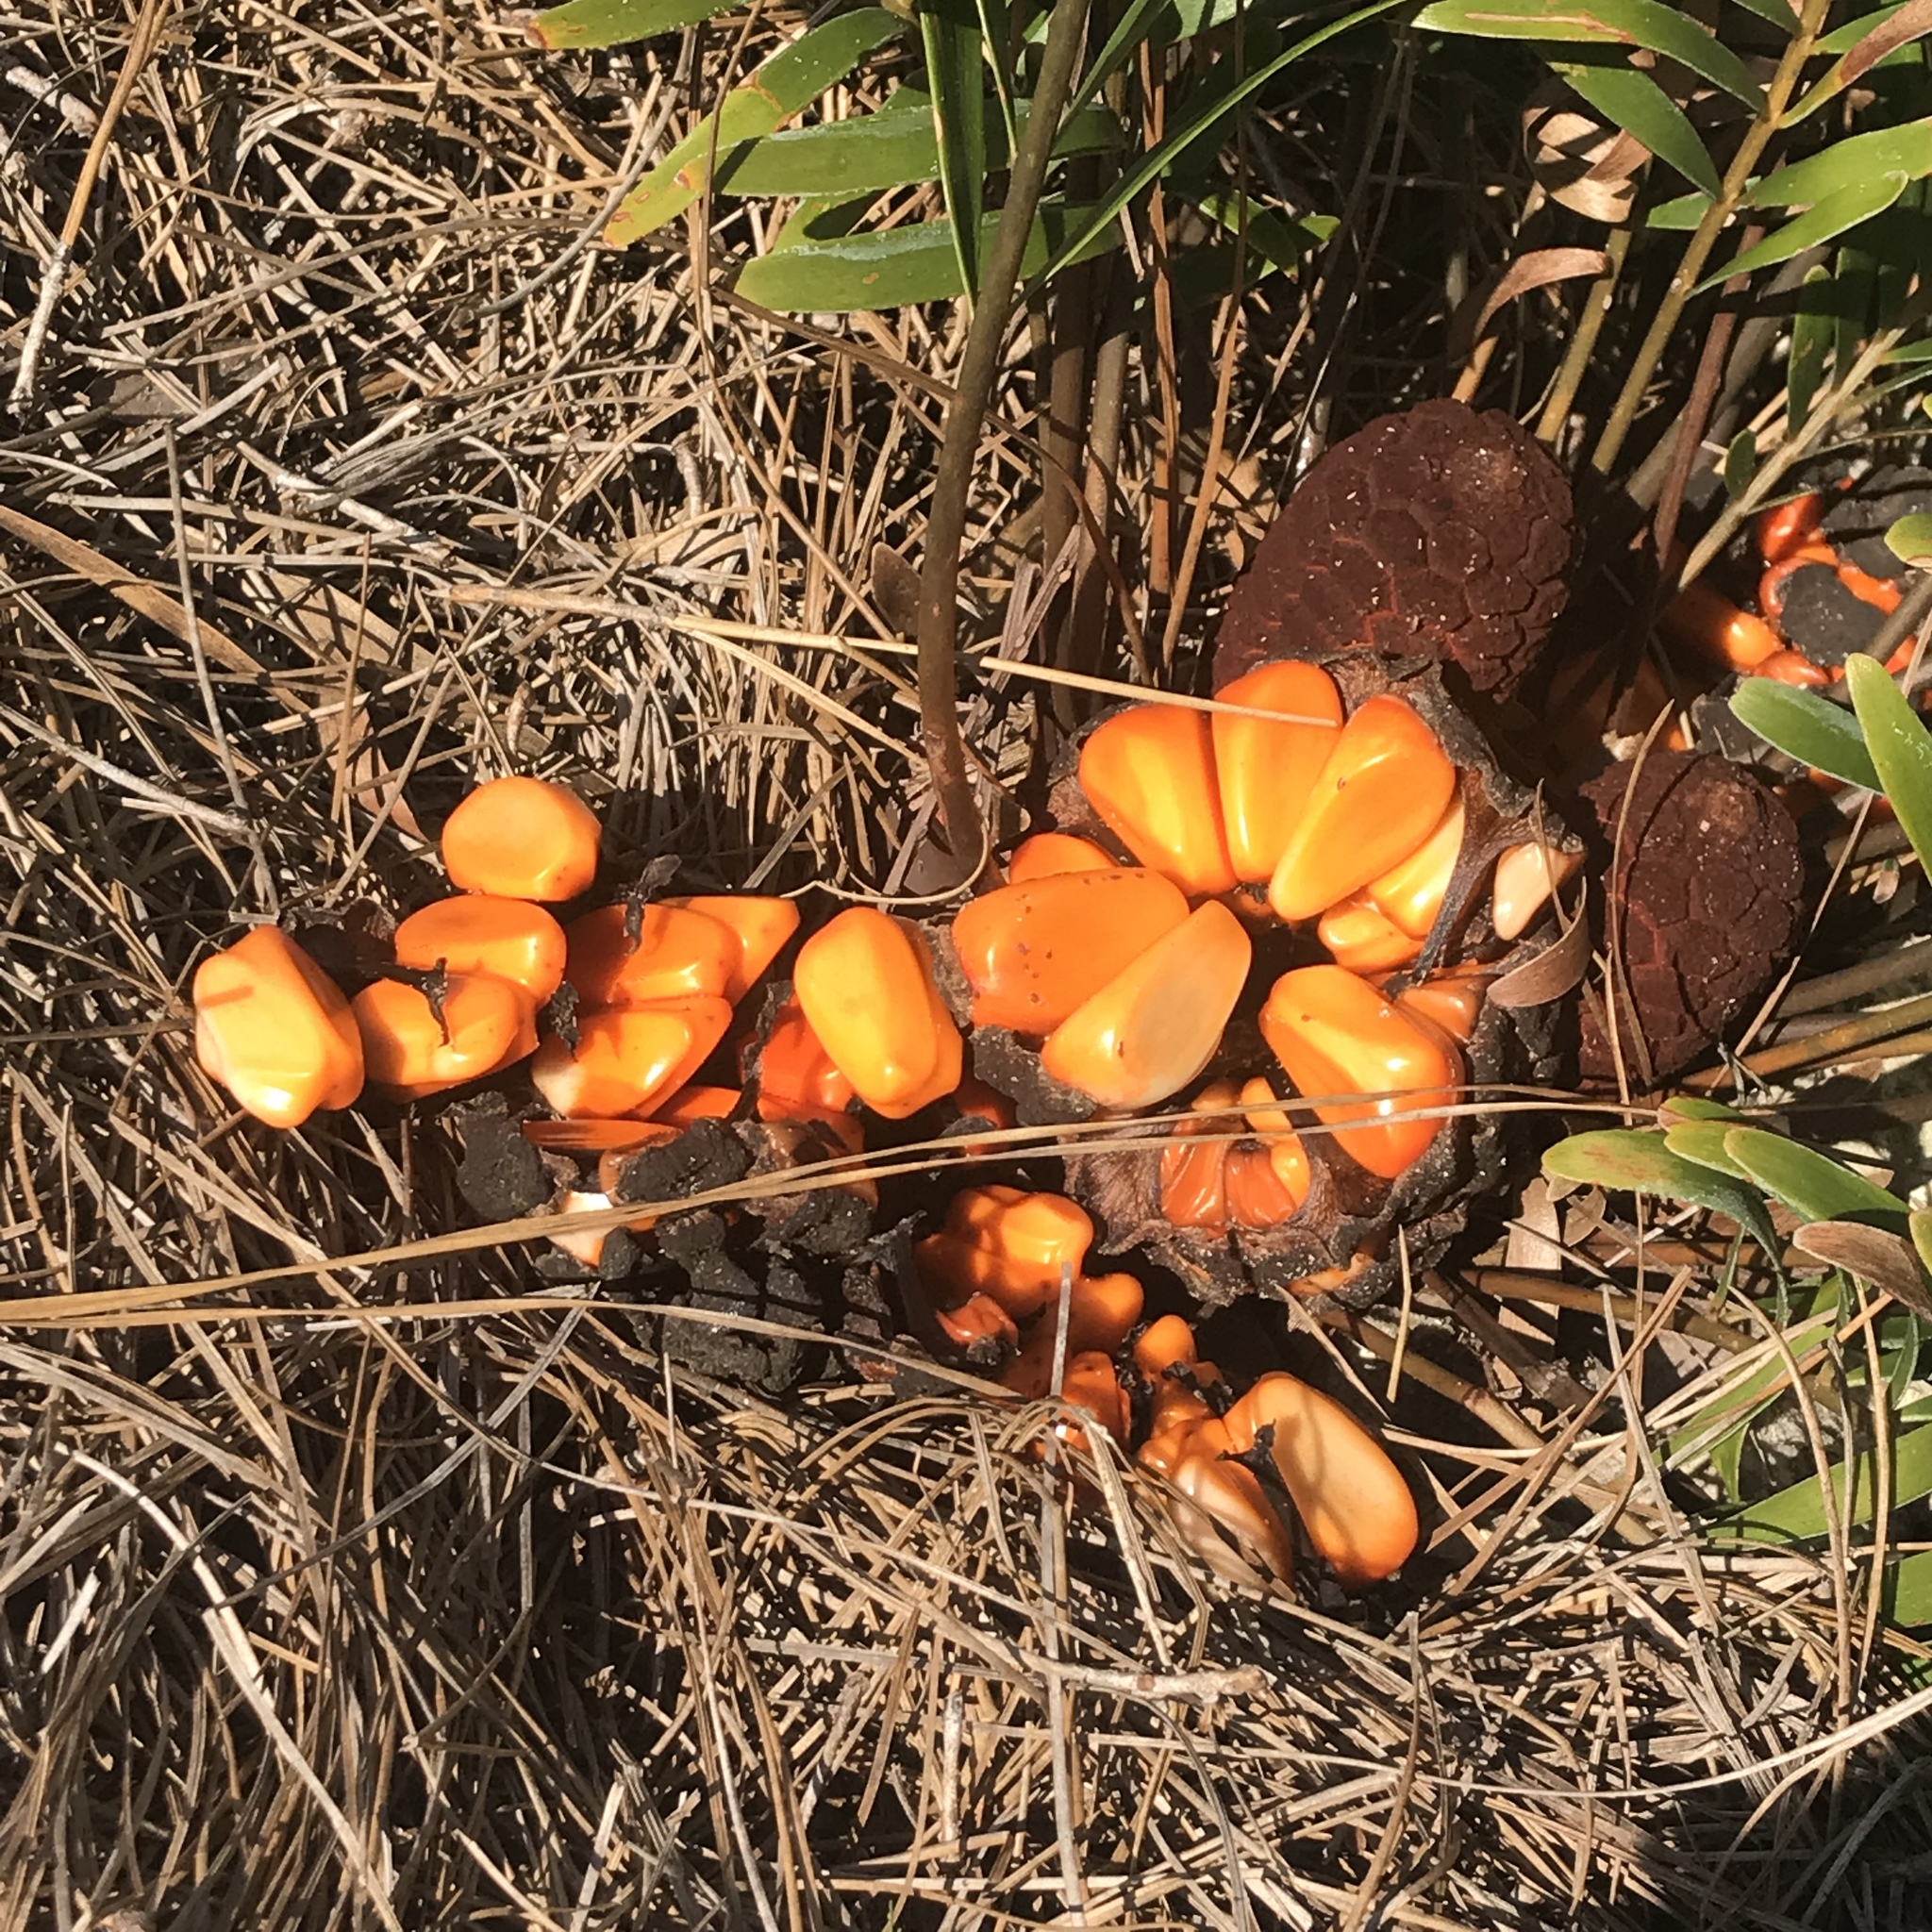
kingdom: Plantae
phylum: Tracheophyta
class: Cycadopsida
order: Cycadales
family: Zamiaceae
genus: Zamia
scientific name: Zamia integrifolia
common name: Florida arrowroot
